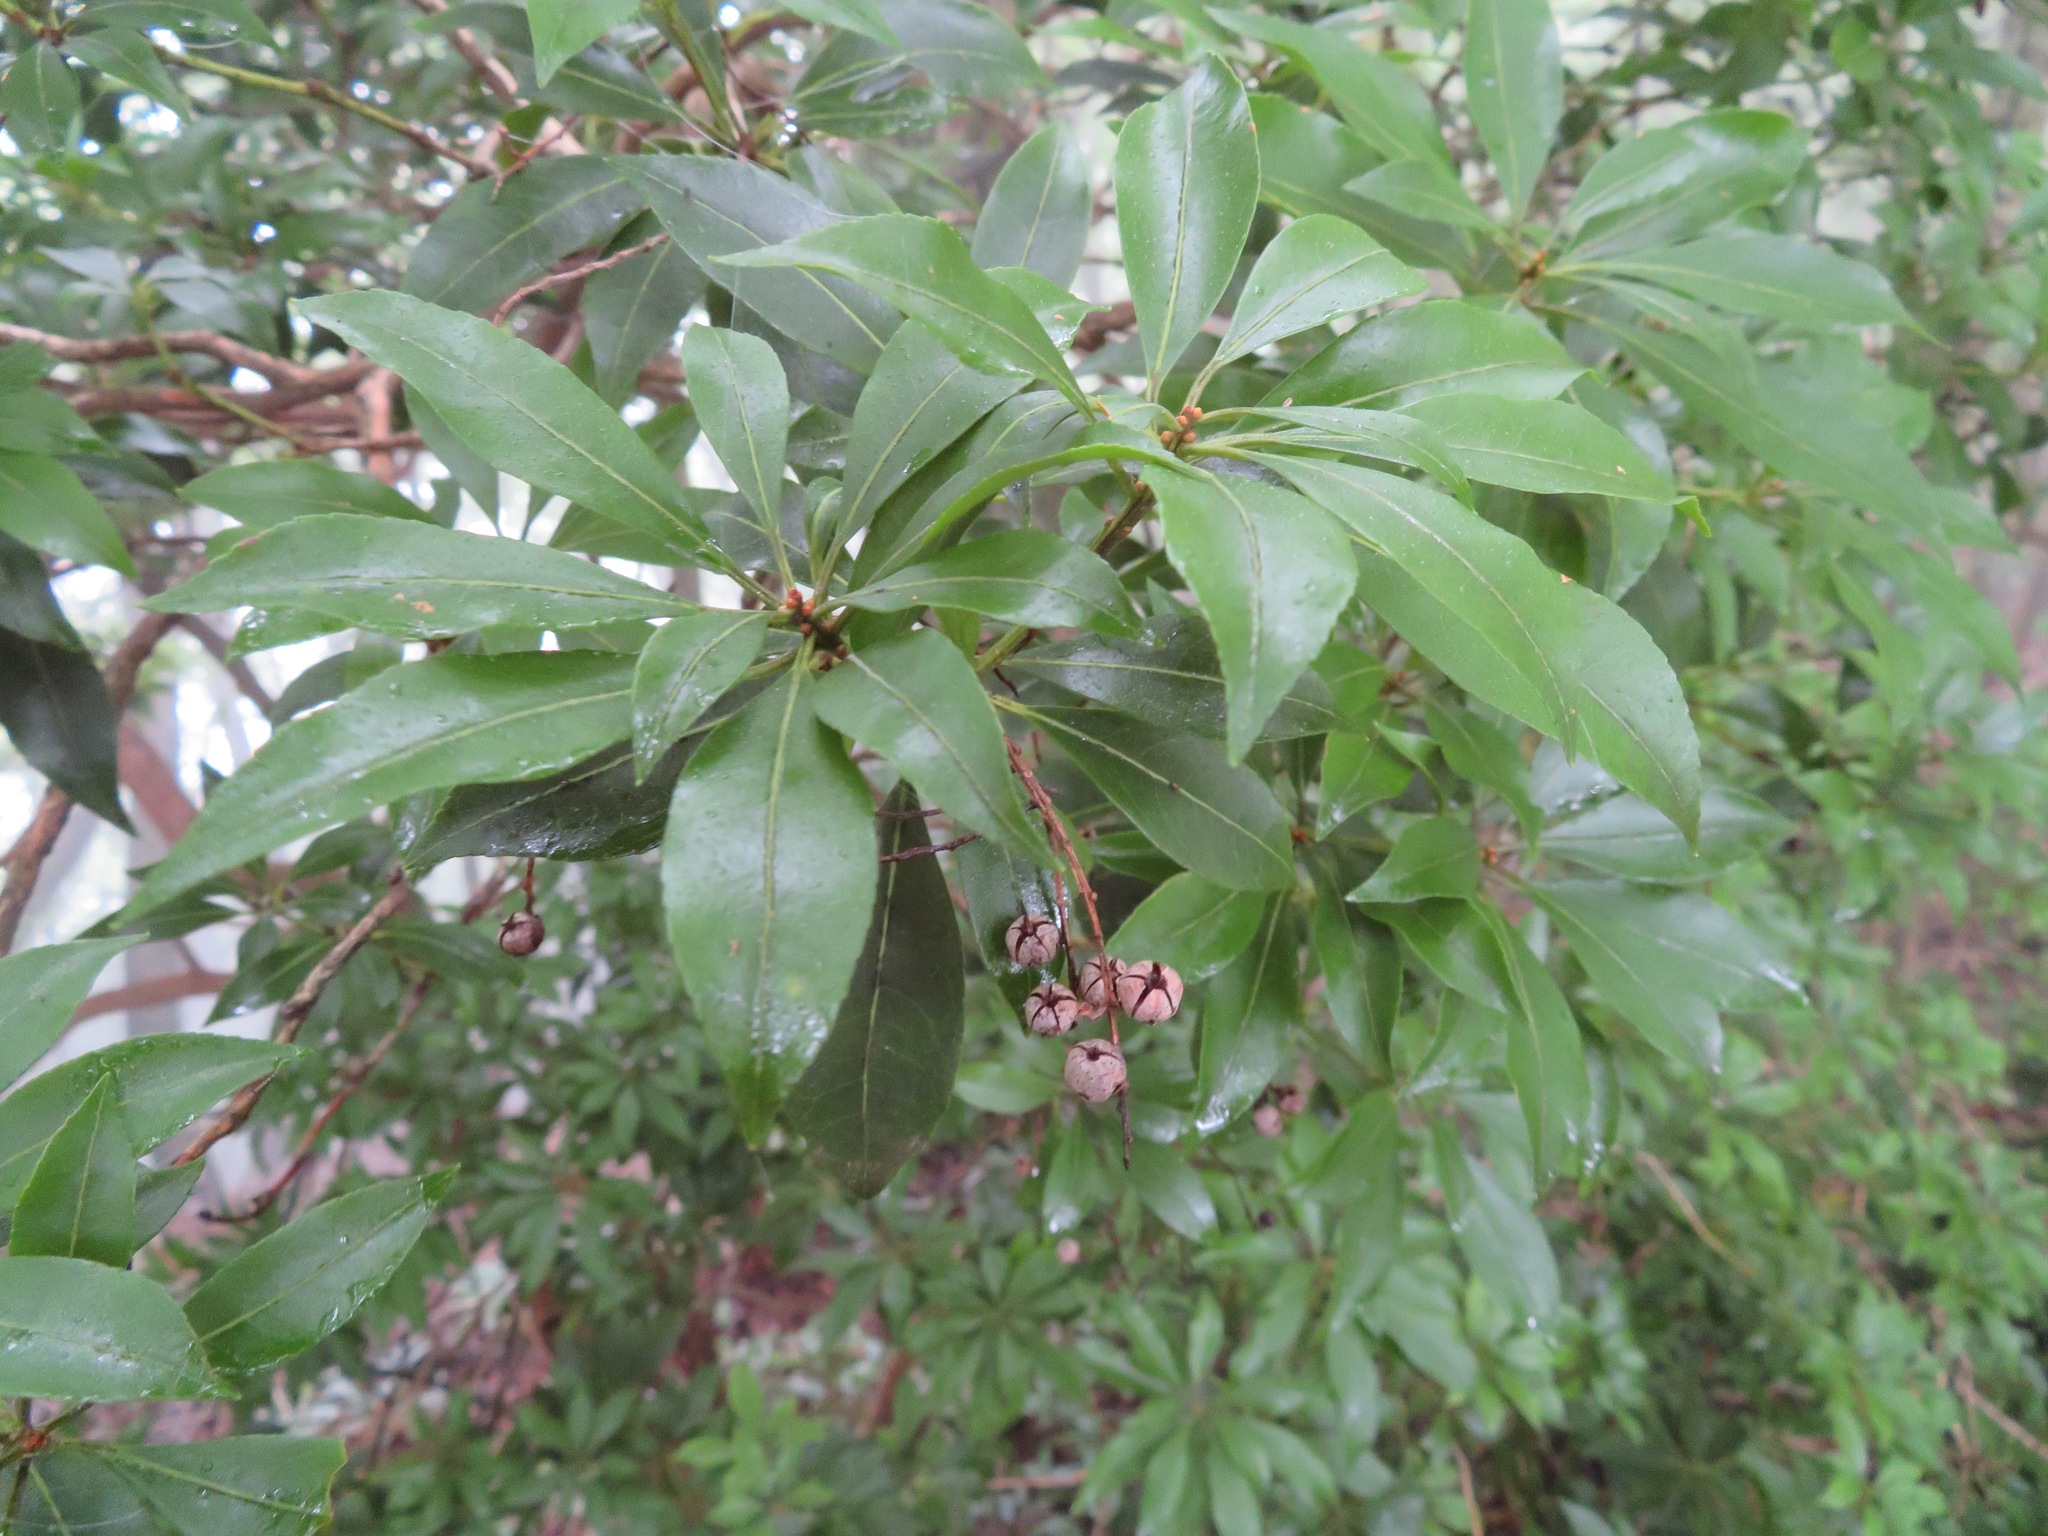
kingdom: Plantae
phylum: Tracheophyta
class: Magnoliopsida
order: Ericales
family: Ericaceae
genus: Pieris
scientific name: Pieris japonica
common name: Japanese pieris
